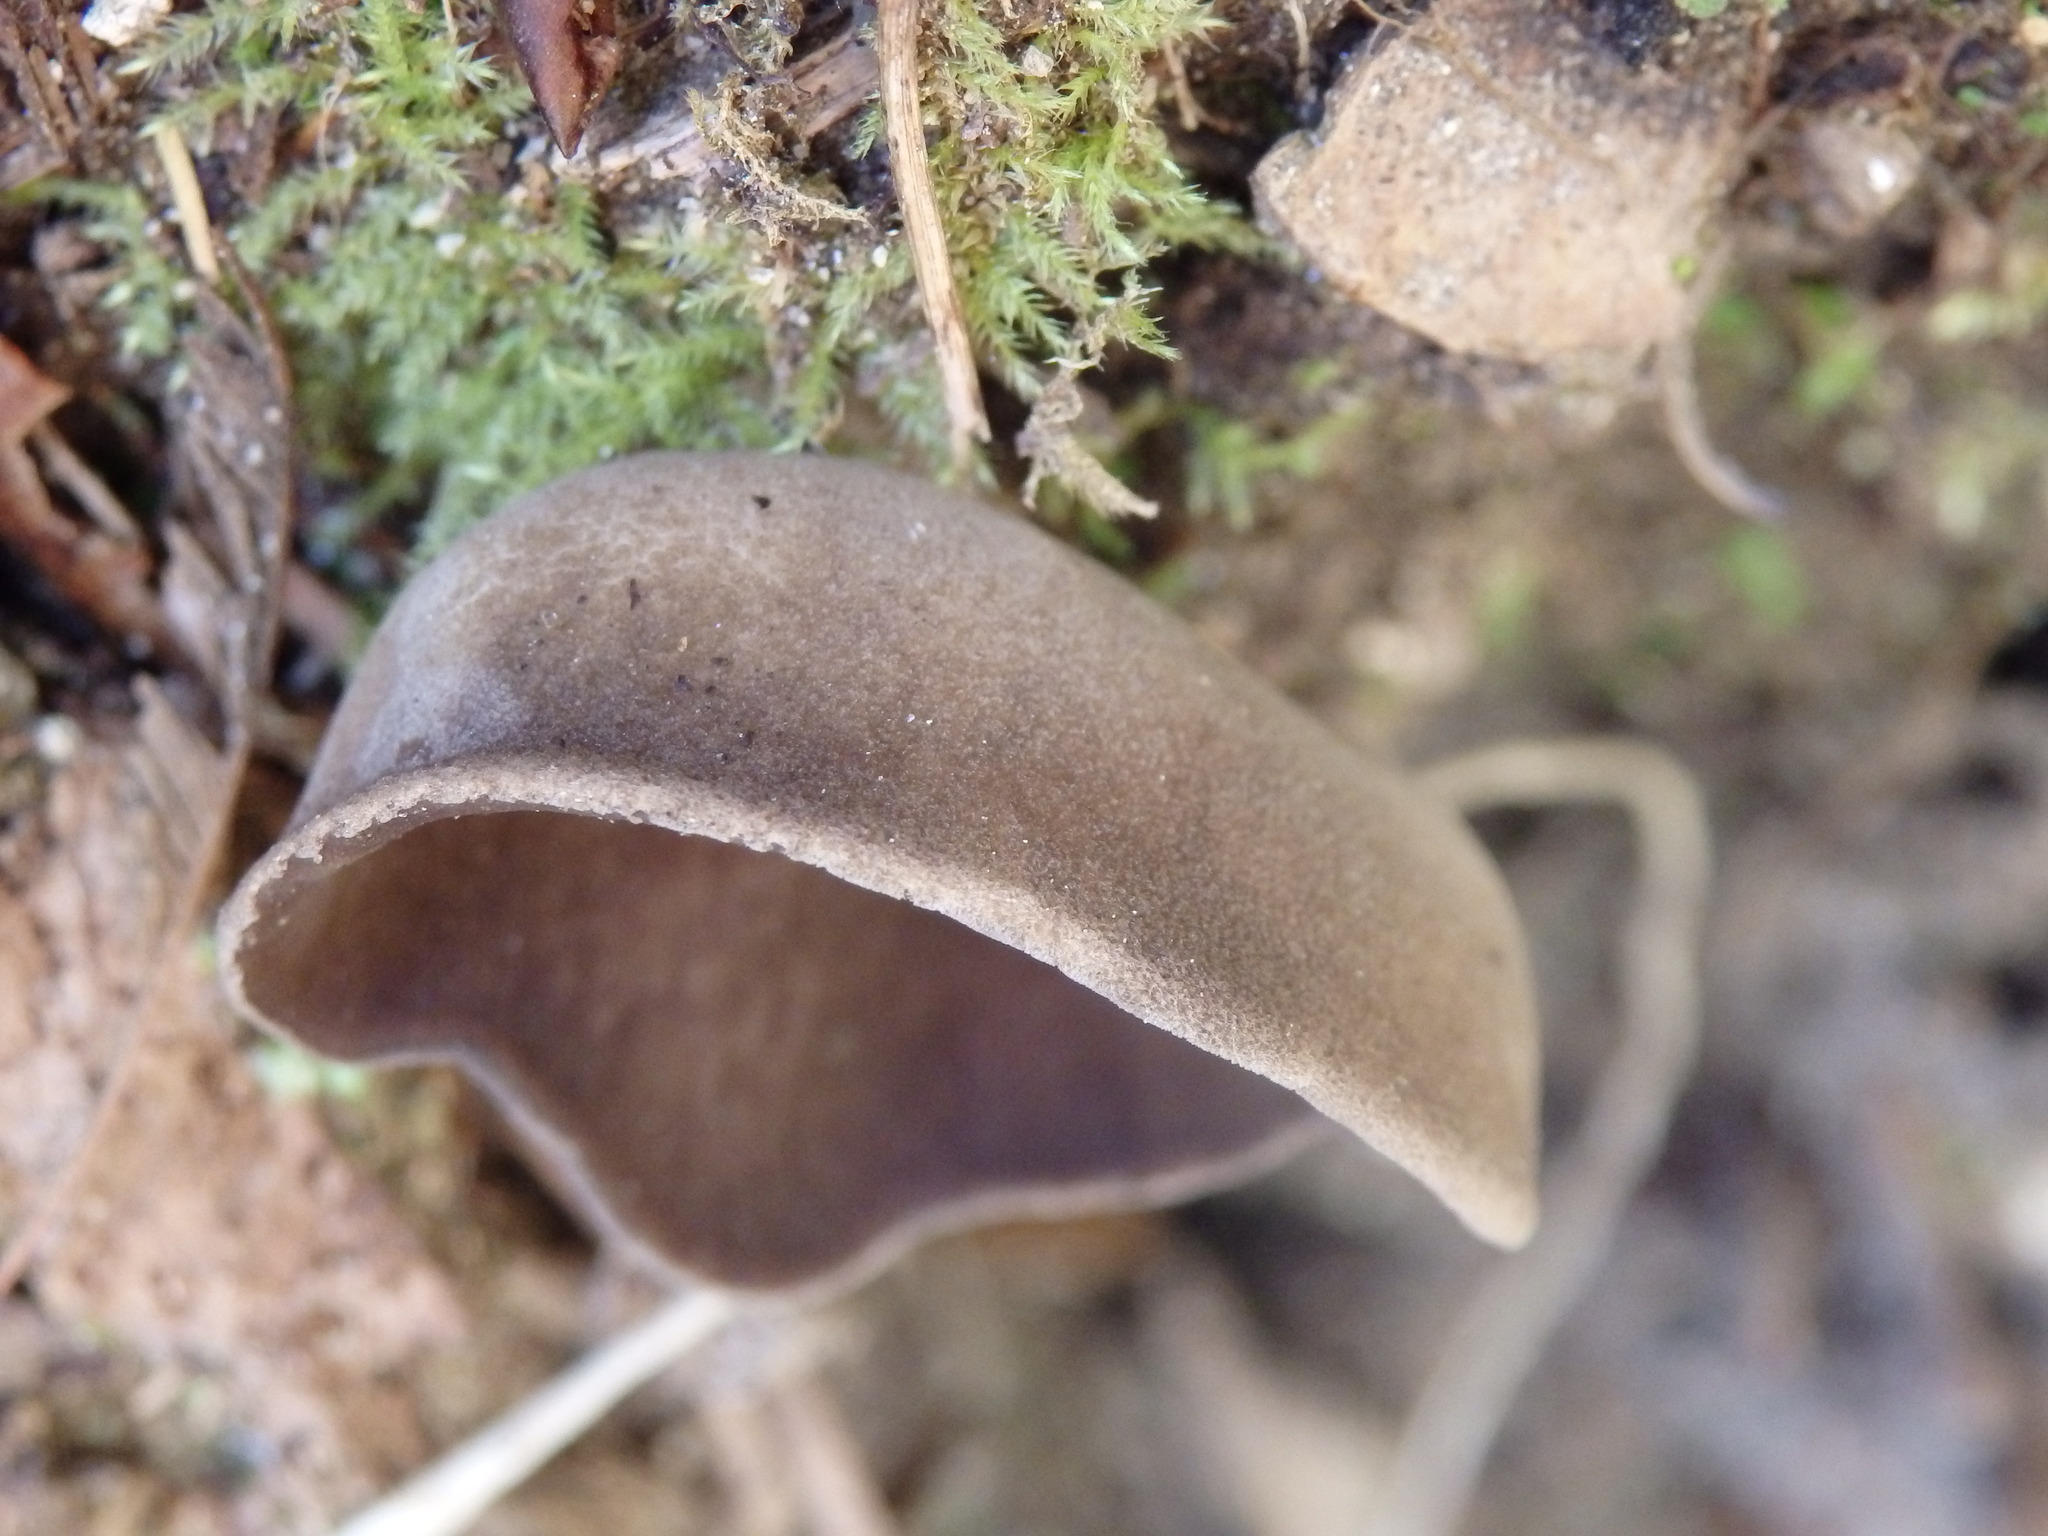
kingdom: Fungi
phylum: Ascomycota
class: Pezizomycetes
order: Pezizales
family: Helvellaceae
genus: Helvella
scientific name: Helvella solitaria
